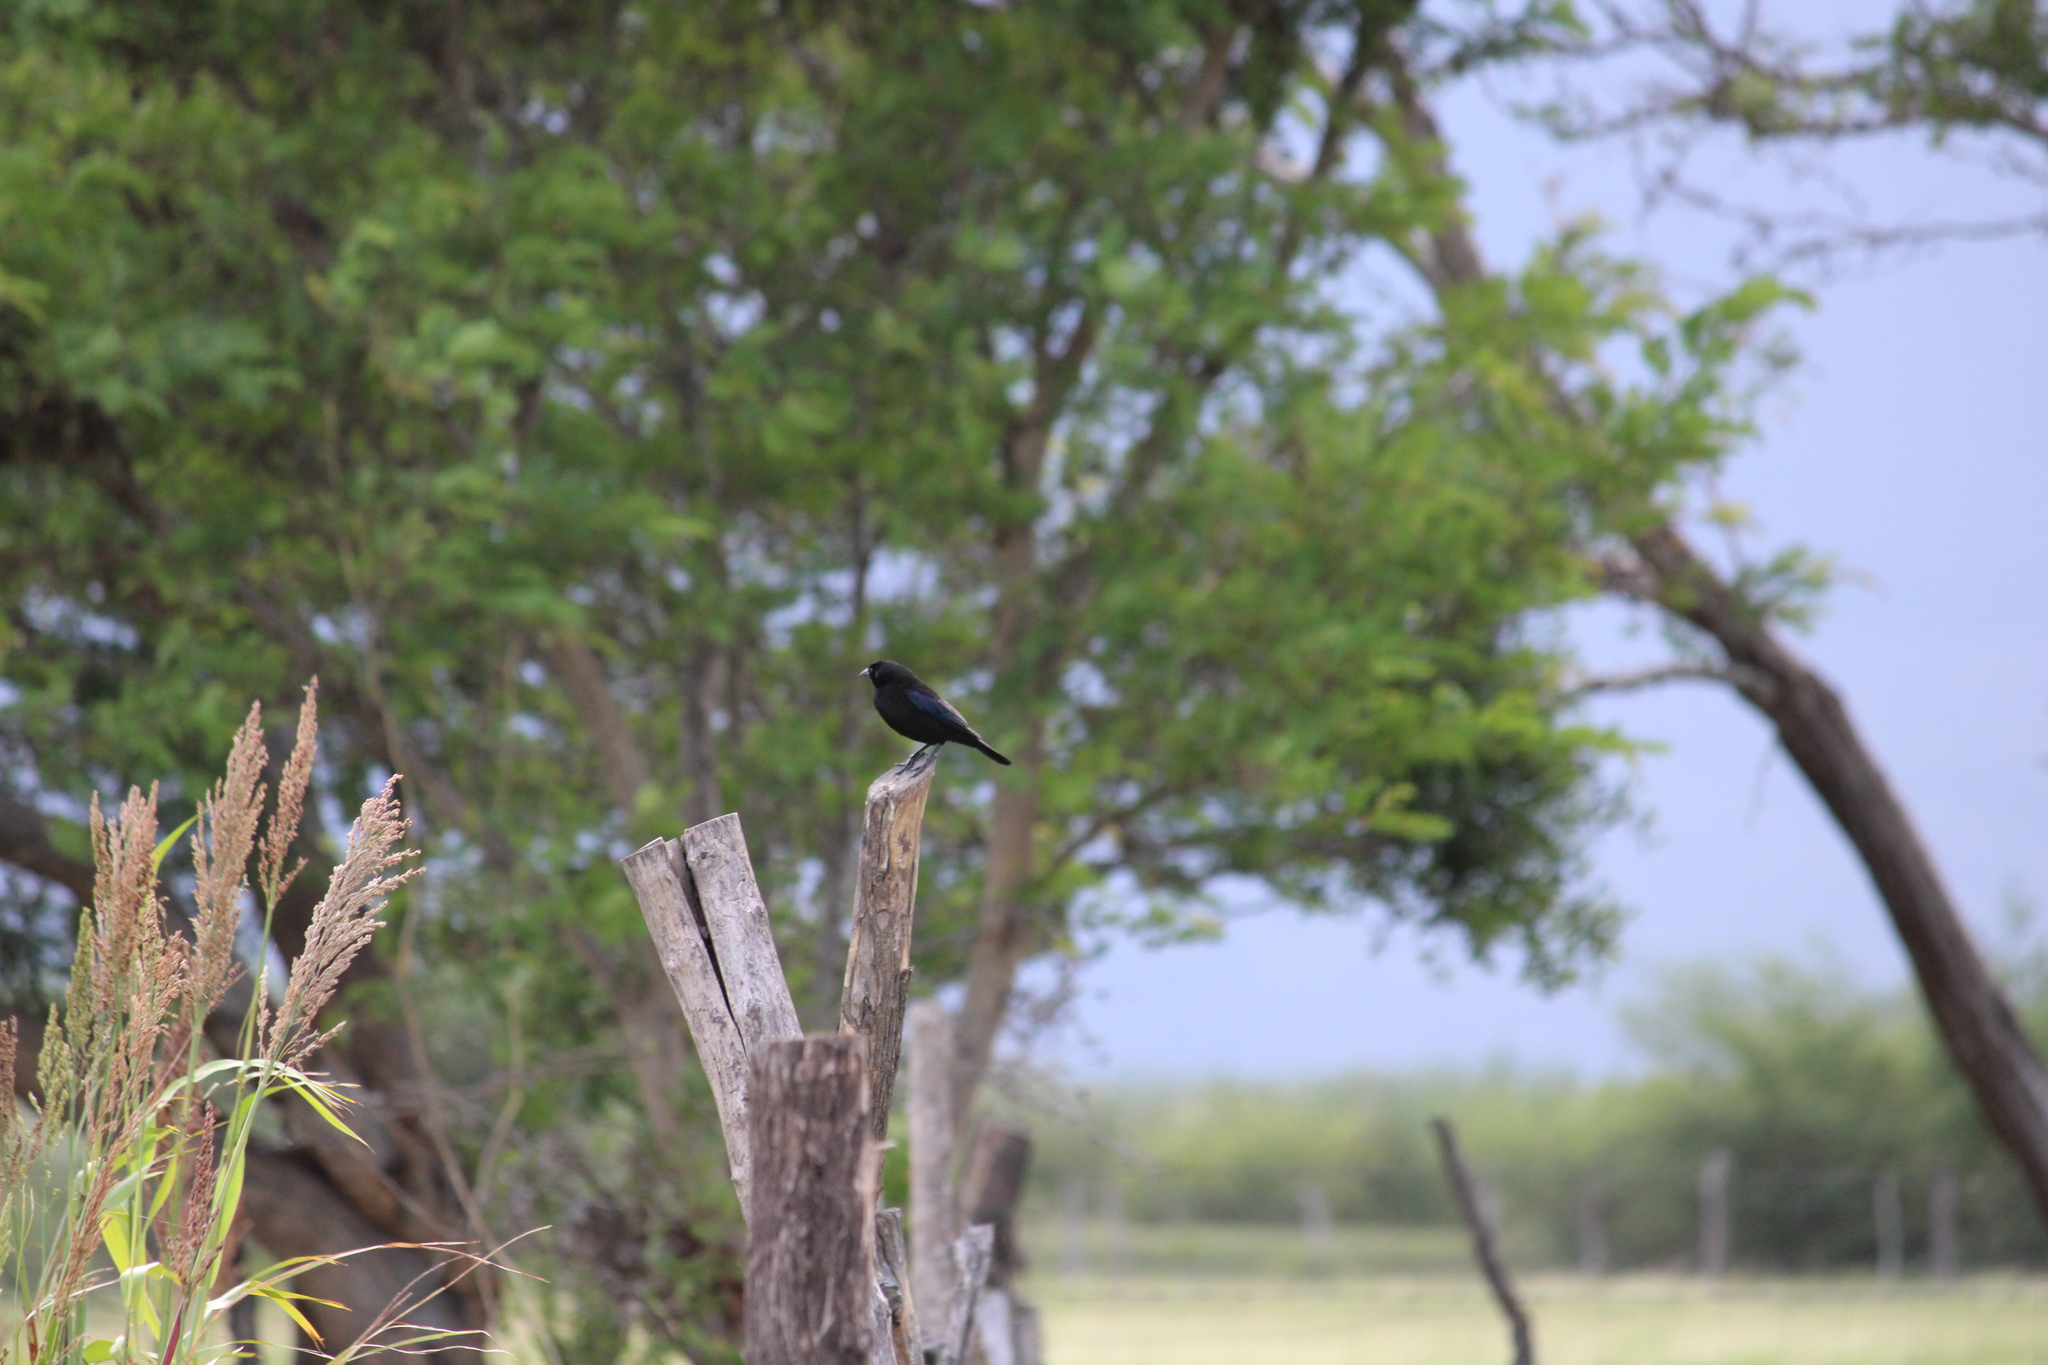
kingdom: Animalia
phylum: Chordata
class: Aves
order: Passeriformes
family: Icteridae
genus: Molothrus
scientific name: Molothrus aeneus
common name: Bronzed cowbird
